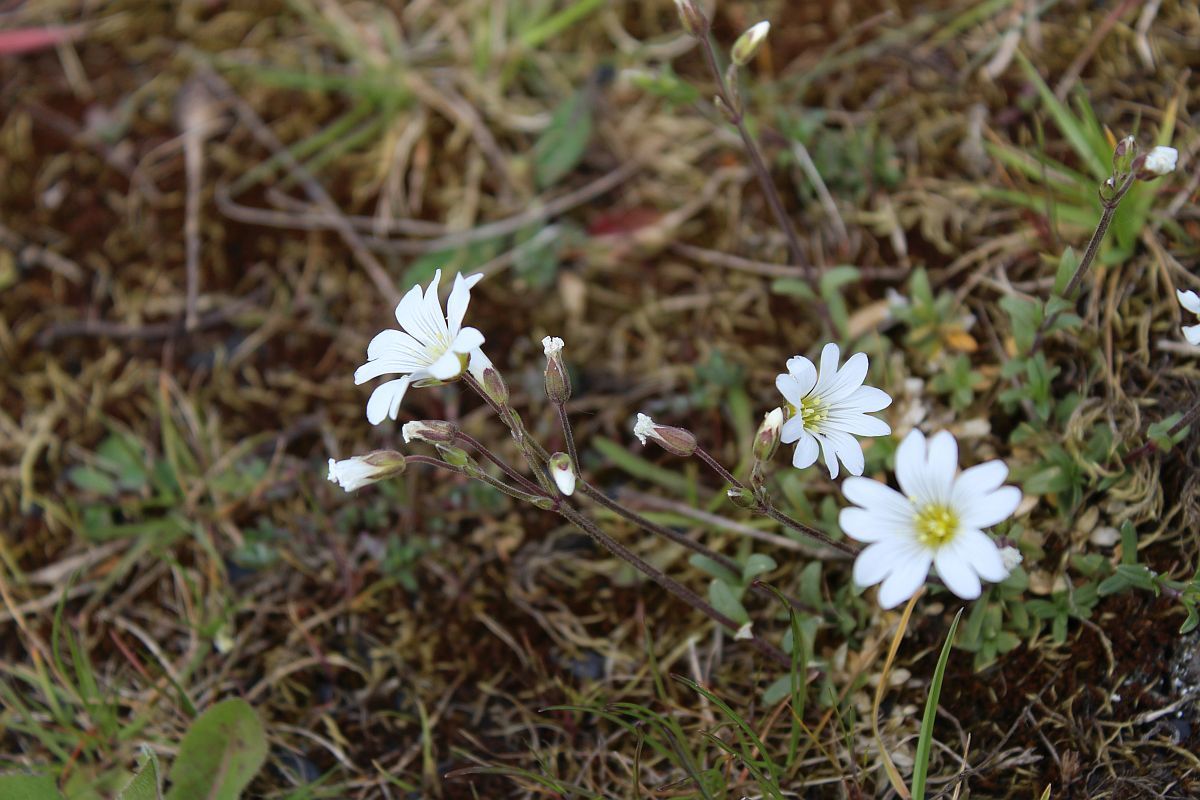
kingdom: Plantae
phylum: Tracheophyta
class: Magnoliopsida
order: Caryophyllales
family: Caryophyllaceae
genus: Cerastium
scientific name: Cerastium arvense
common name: Field mouse-ear
